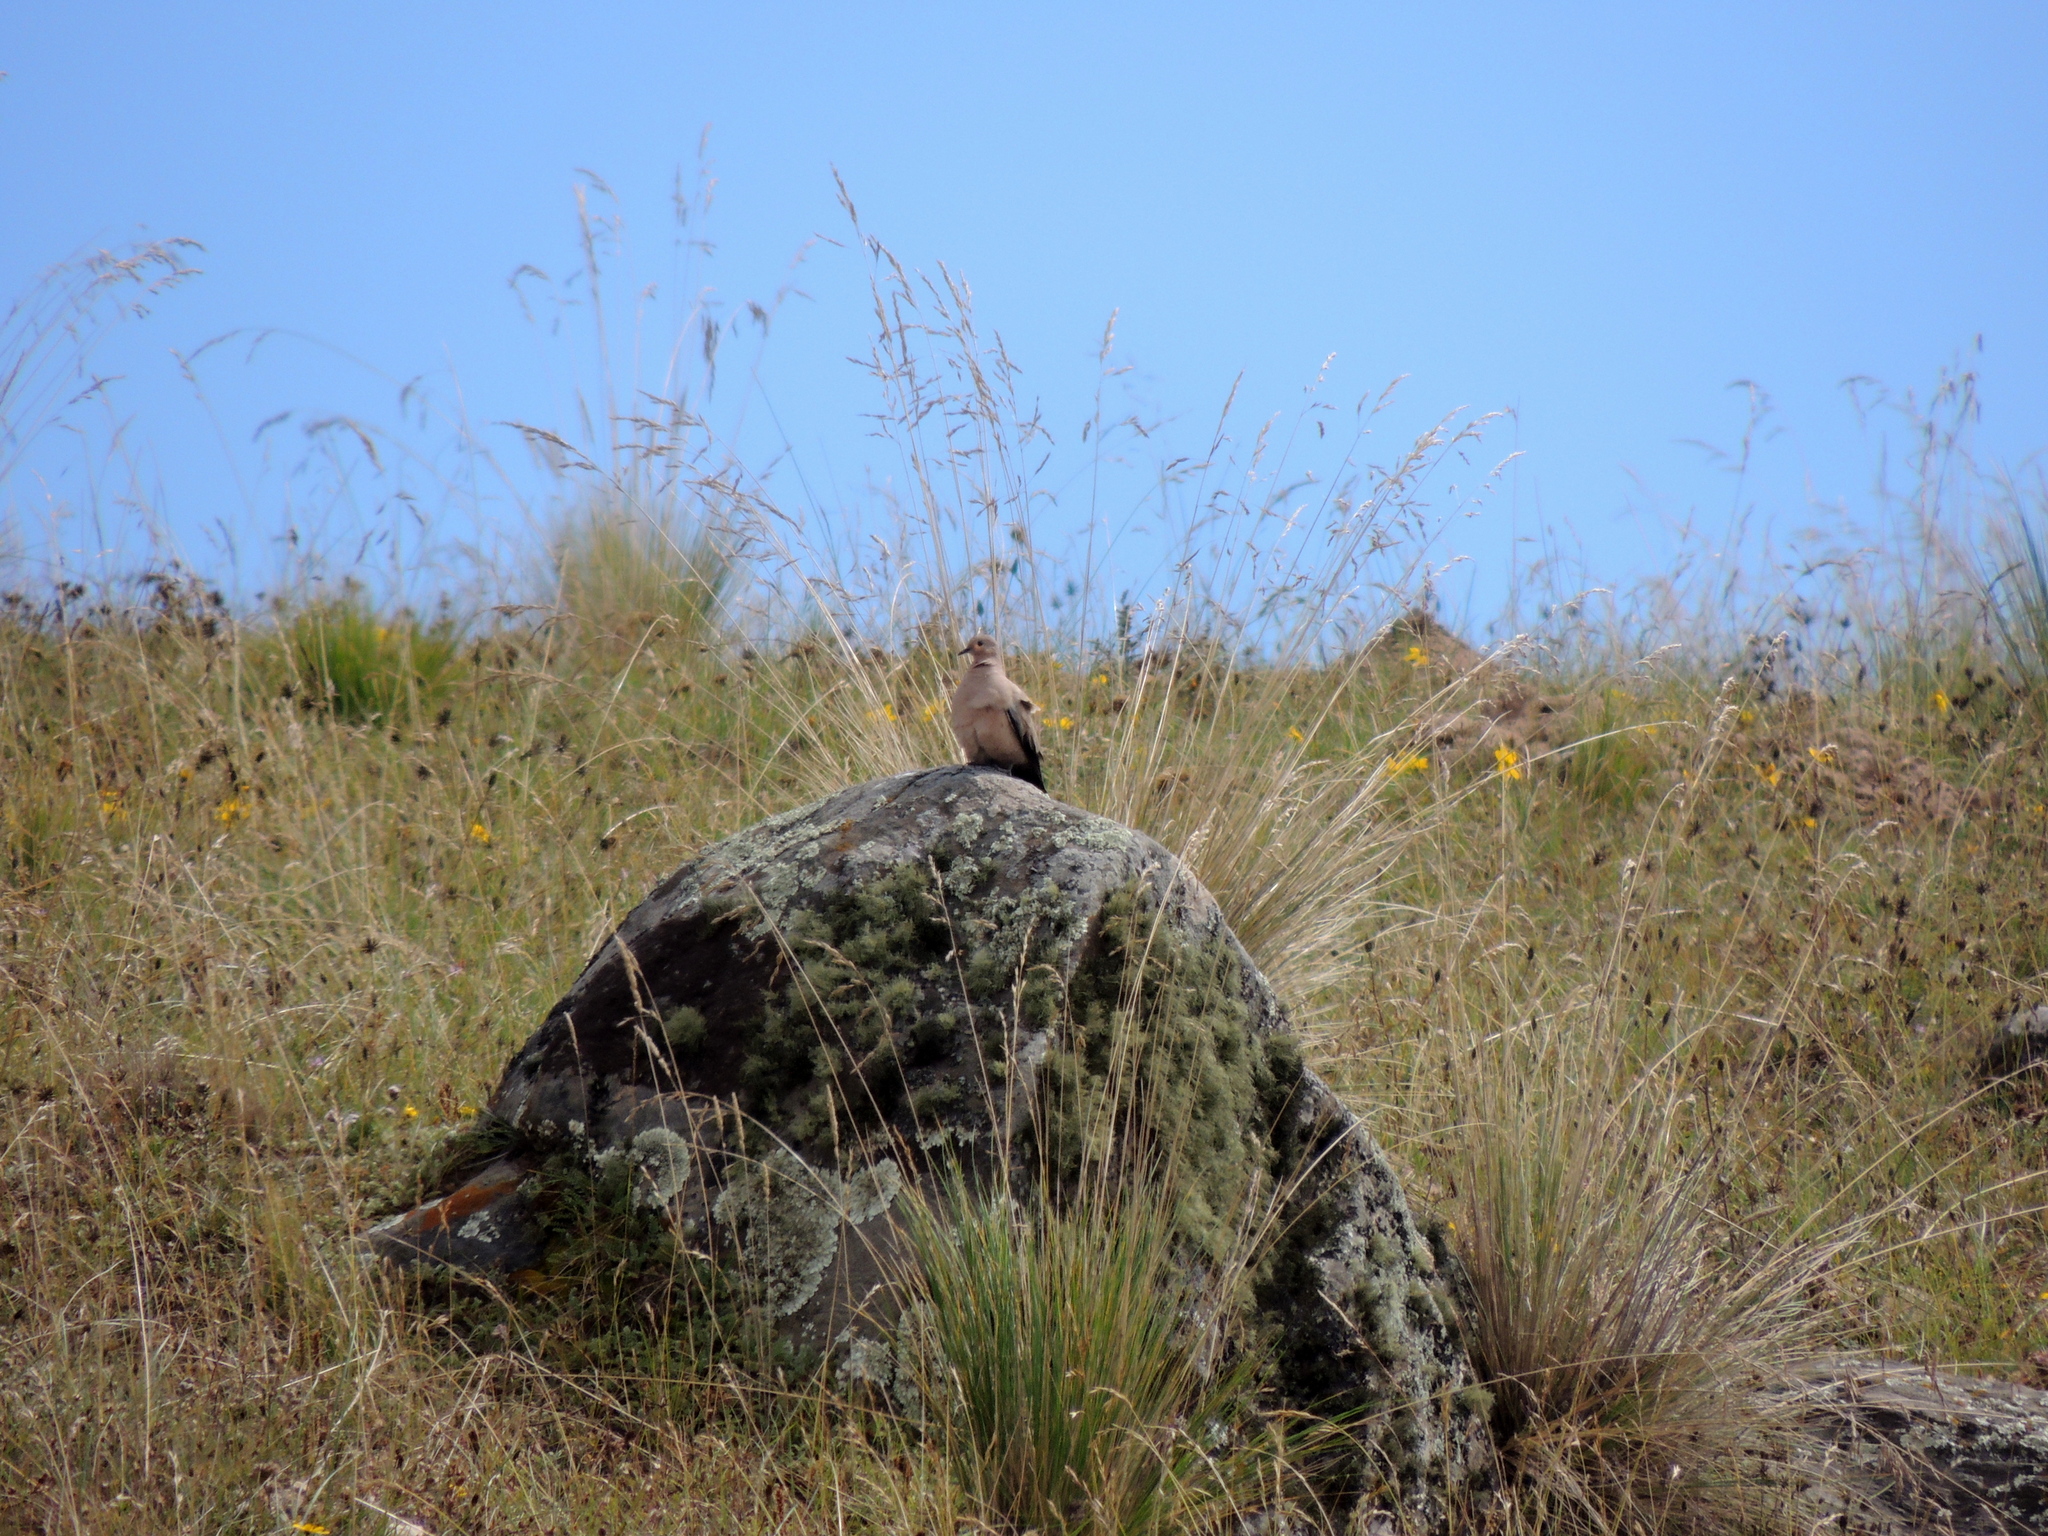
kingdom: Animalia
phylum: Chordata
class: Aves
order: Columbiformes
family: Columbidae
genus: Metriopelia
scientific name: Metriopelia melanoptera
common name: Black-winged ground dove
